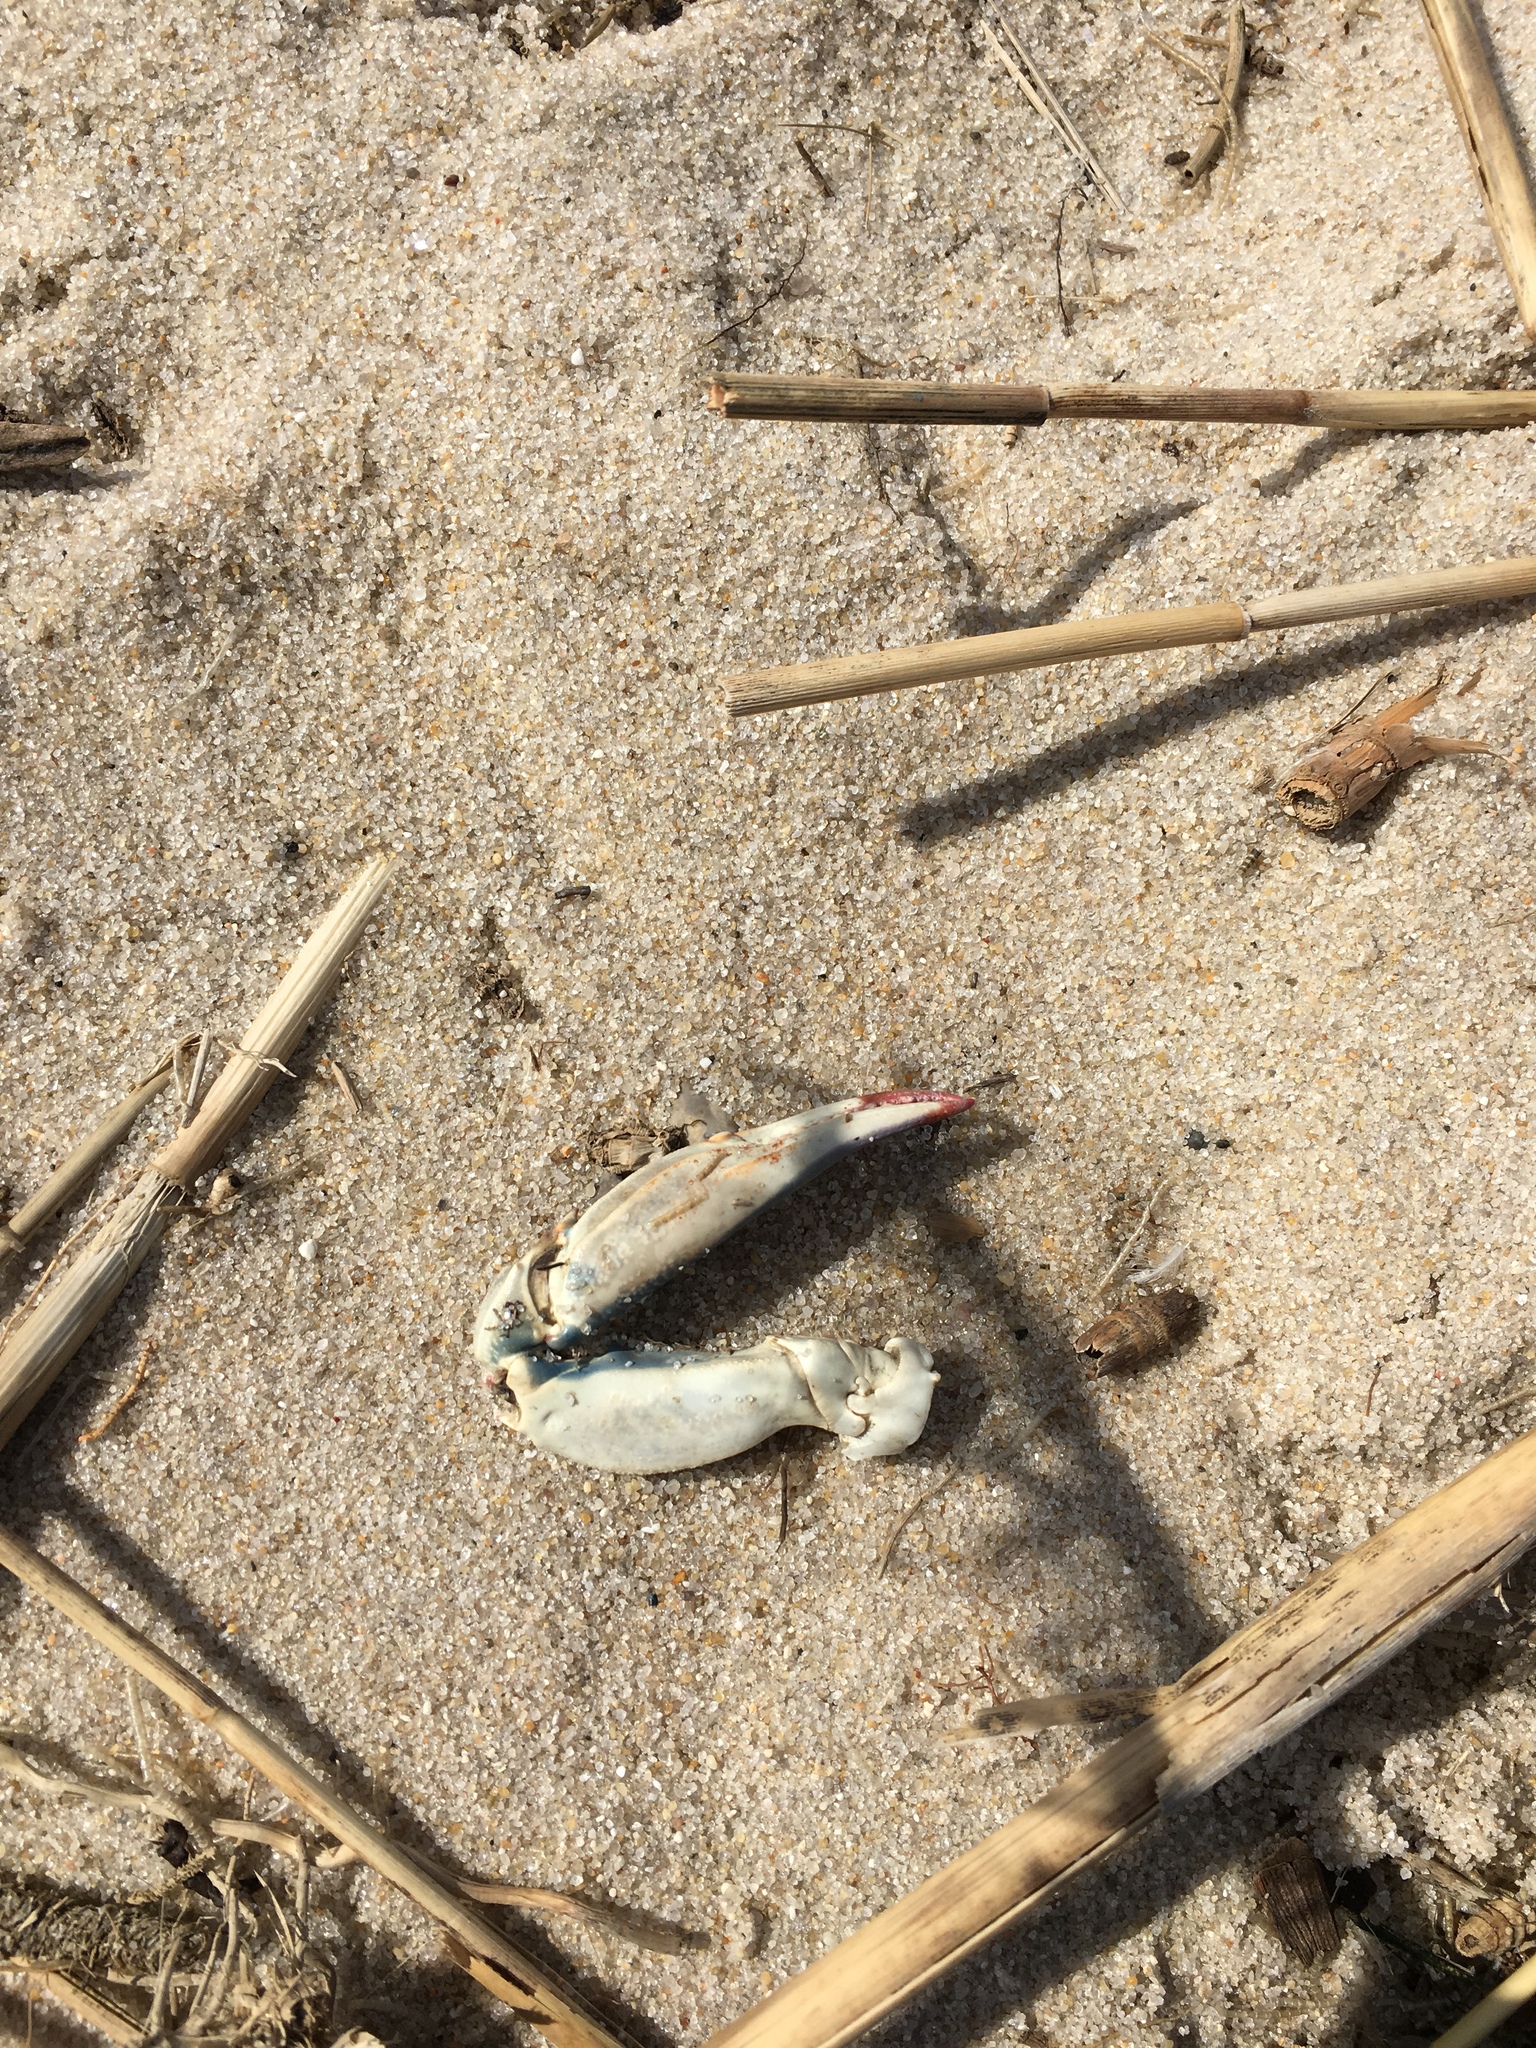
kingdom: Animalia
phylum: Arthropoda
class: Malacostraca
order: Decapoda
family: Portunidae
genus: Callinectes
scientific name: Callinectes sapidus
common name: Blue crab
